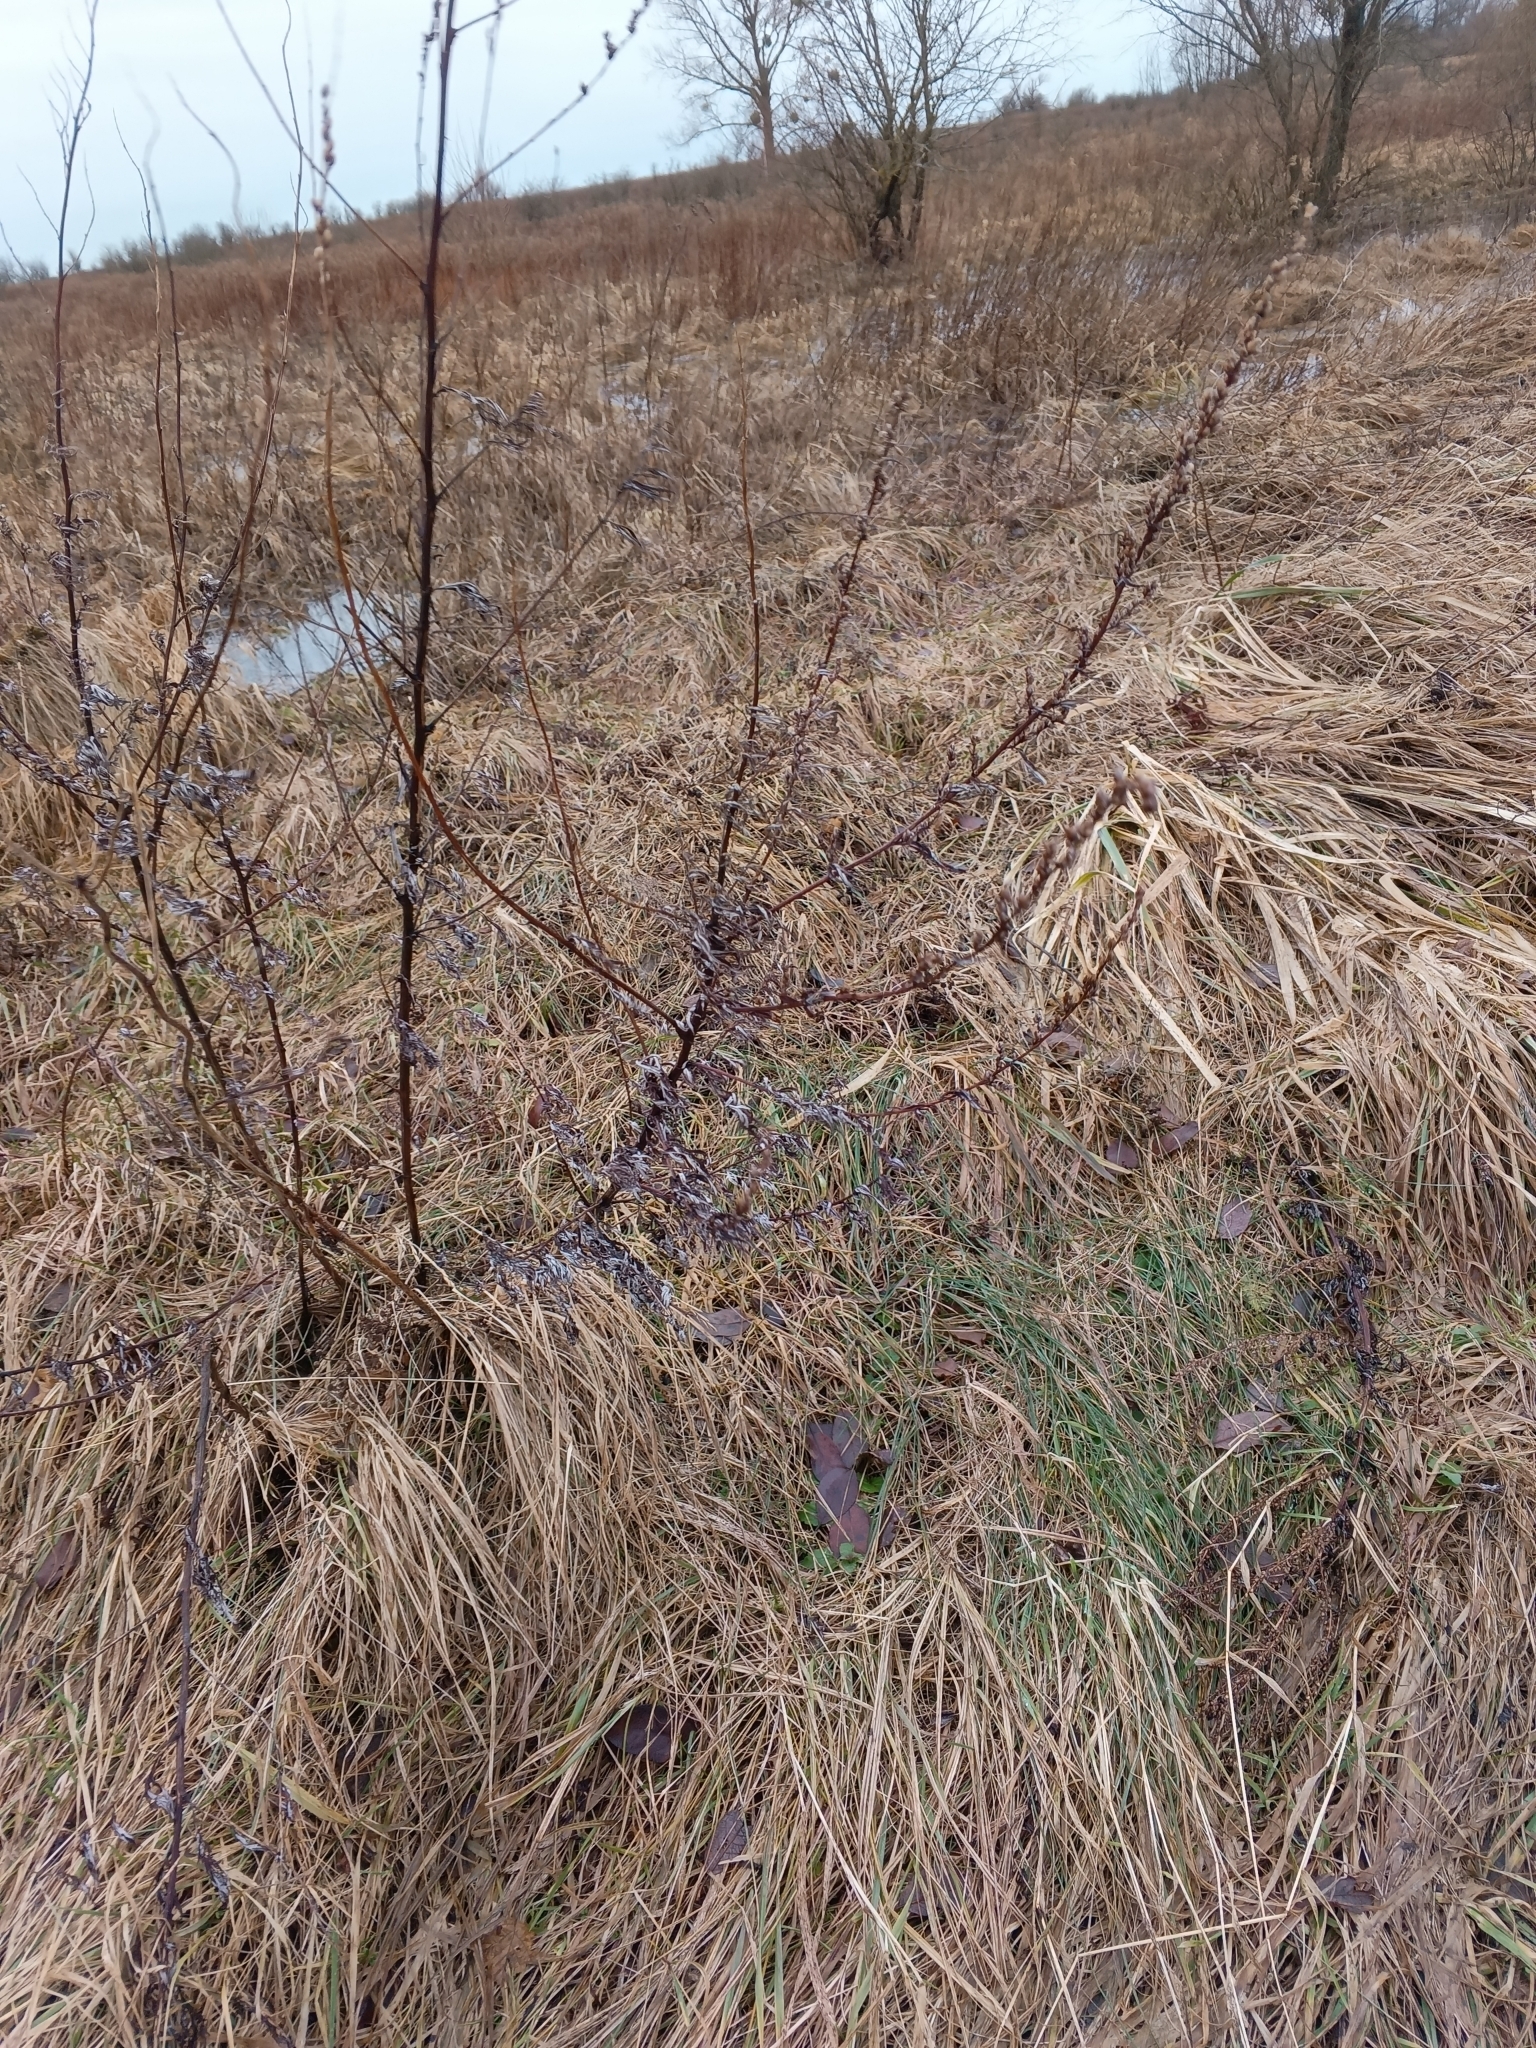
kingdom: Plantae
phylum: Tracheophyta
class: Magnoliopsida
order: Asterales
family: Asteraceae
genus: Artemisia
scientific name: Artemisia vulgaris
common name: Mugwort
